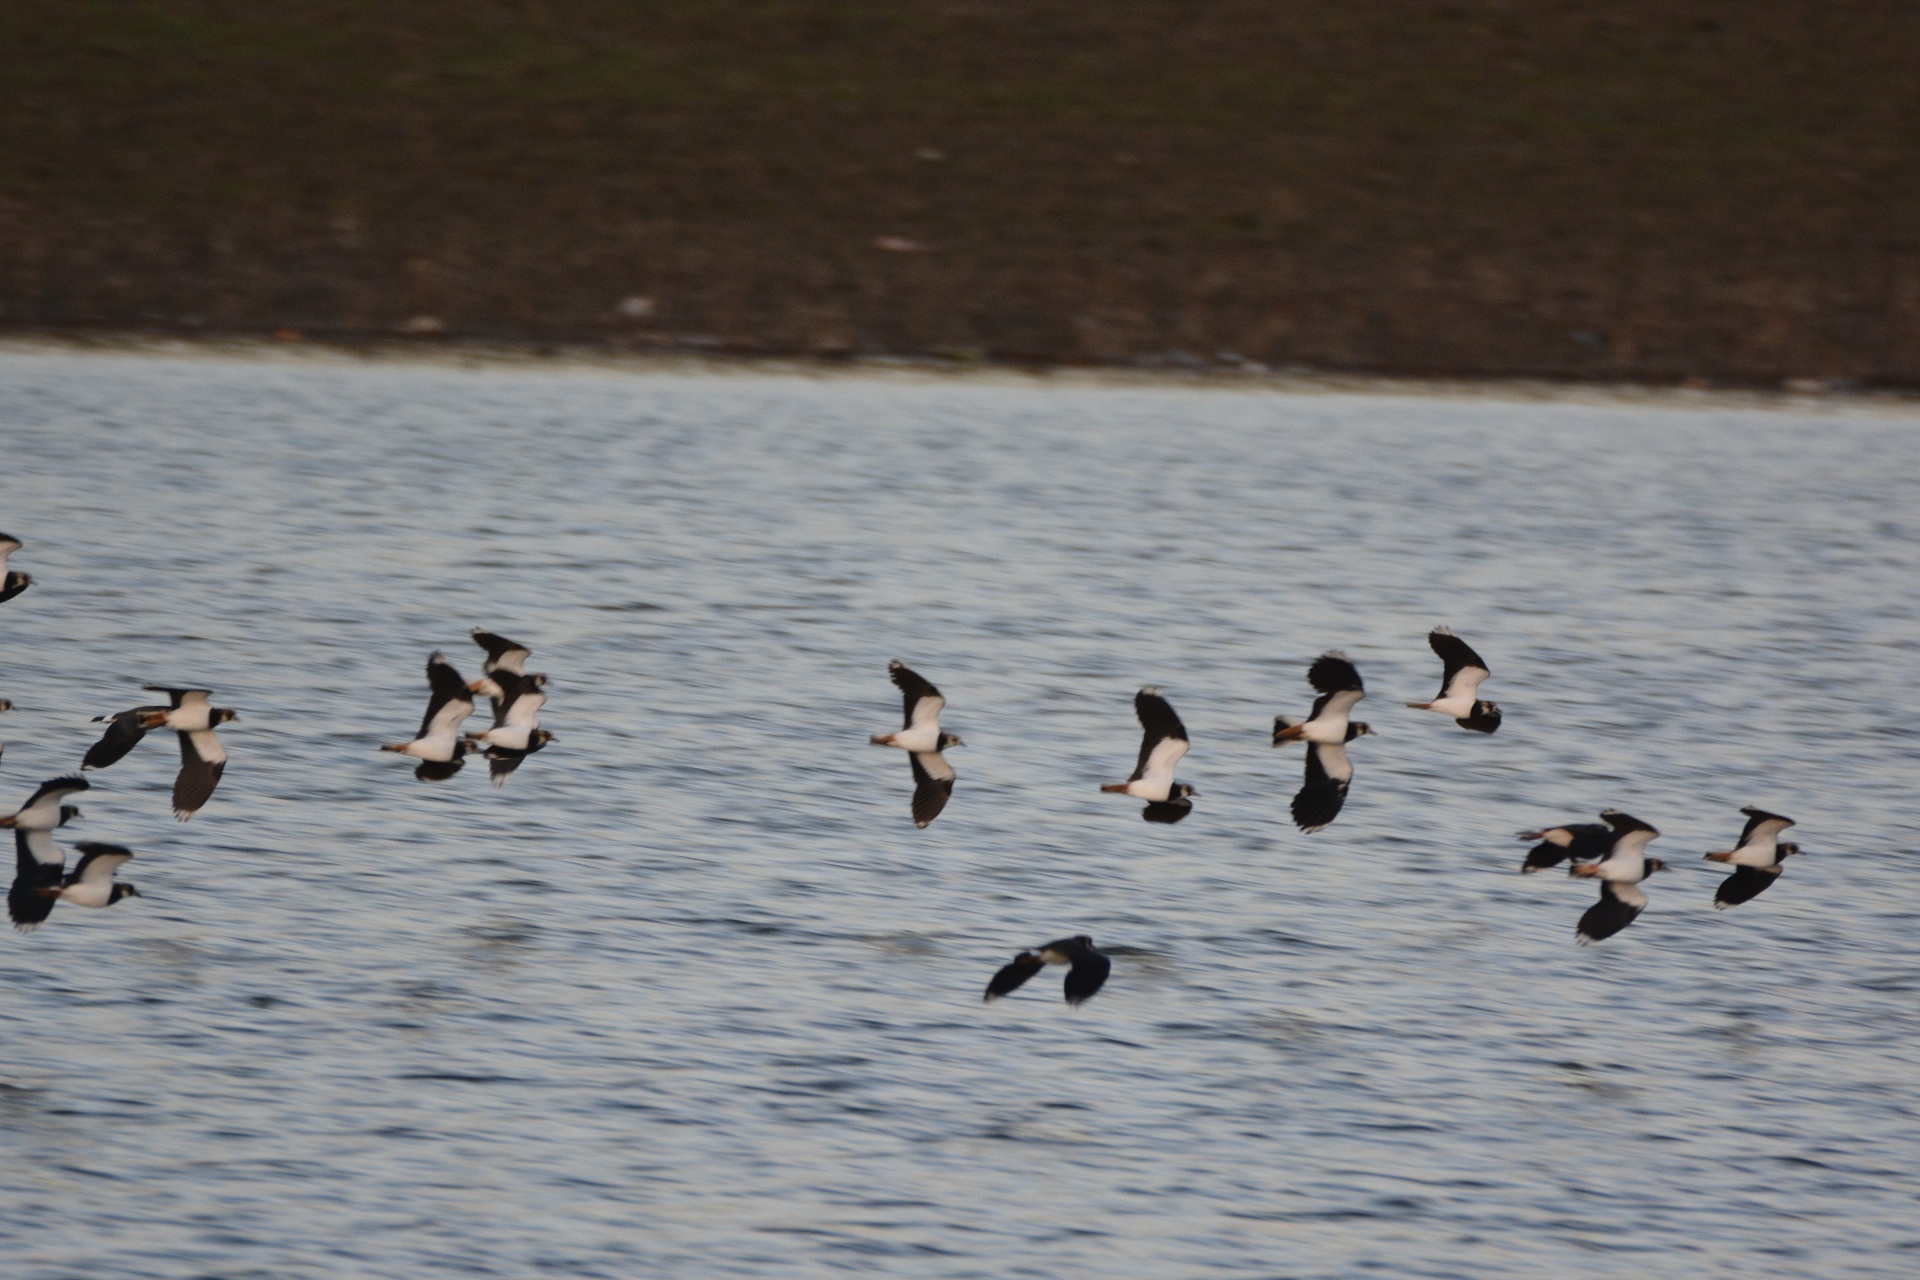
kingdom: Animalia
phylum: Chordata
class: Aves
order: Charadriiformes
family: Charadriidae
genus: Vanellus
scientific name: Vanellus vanellus
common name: Northern lapwing
